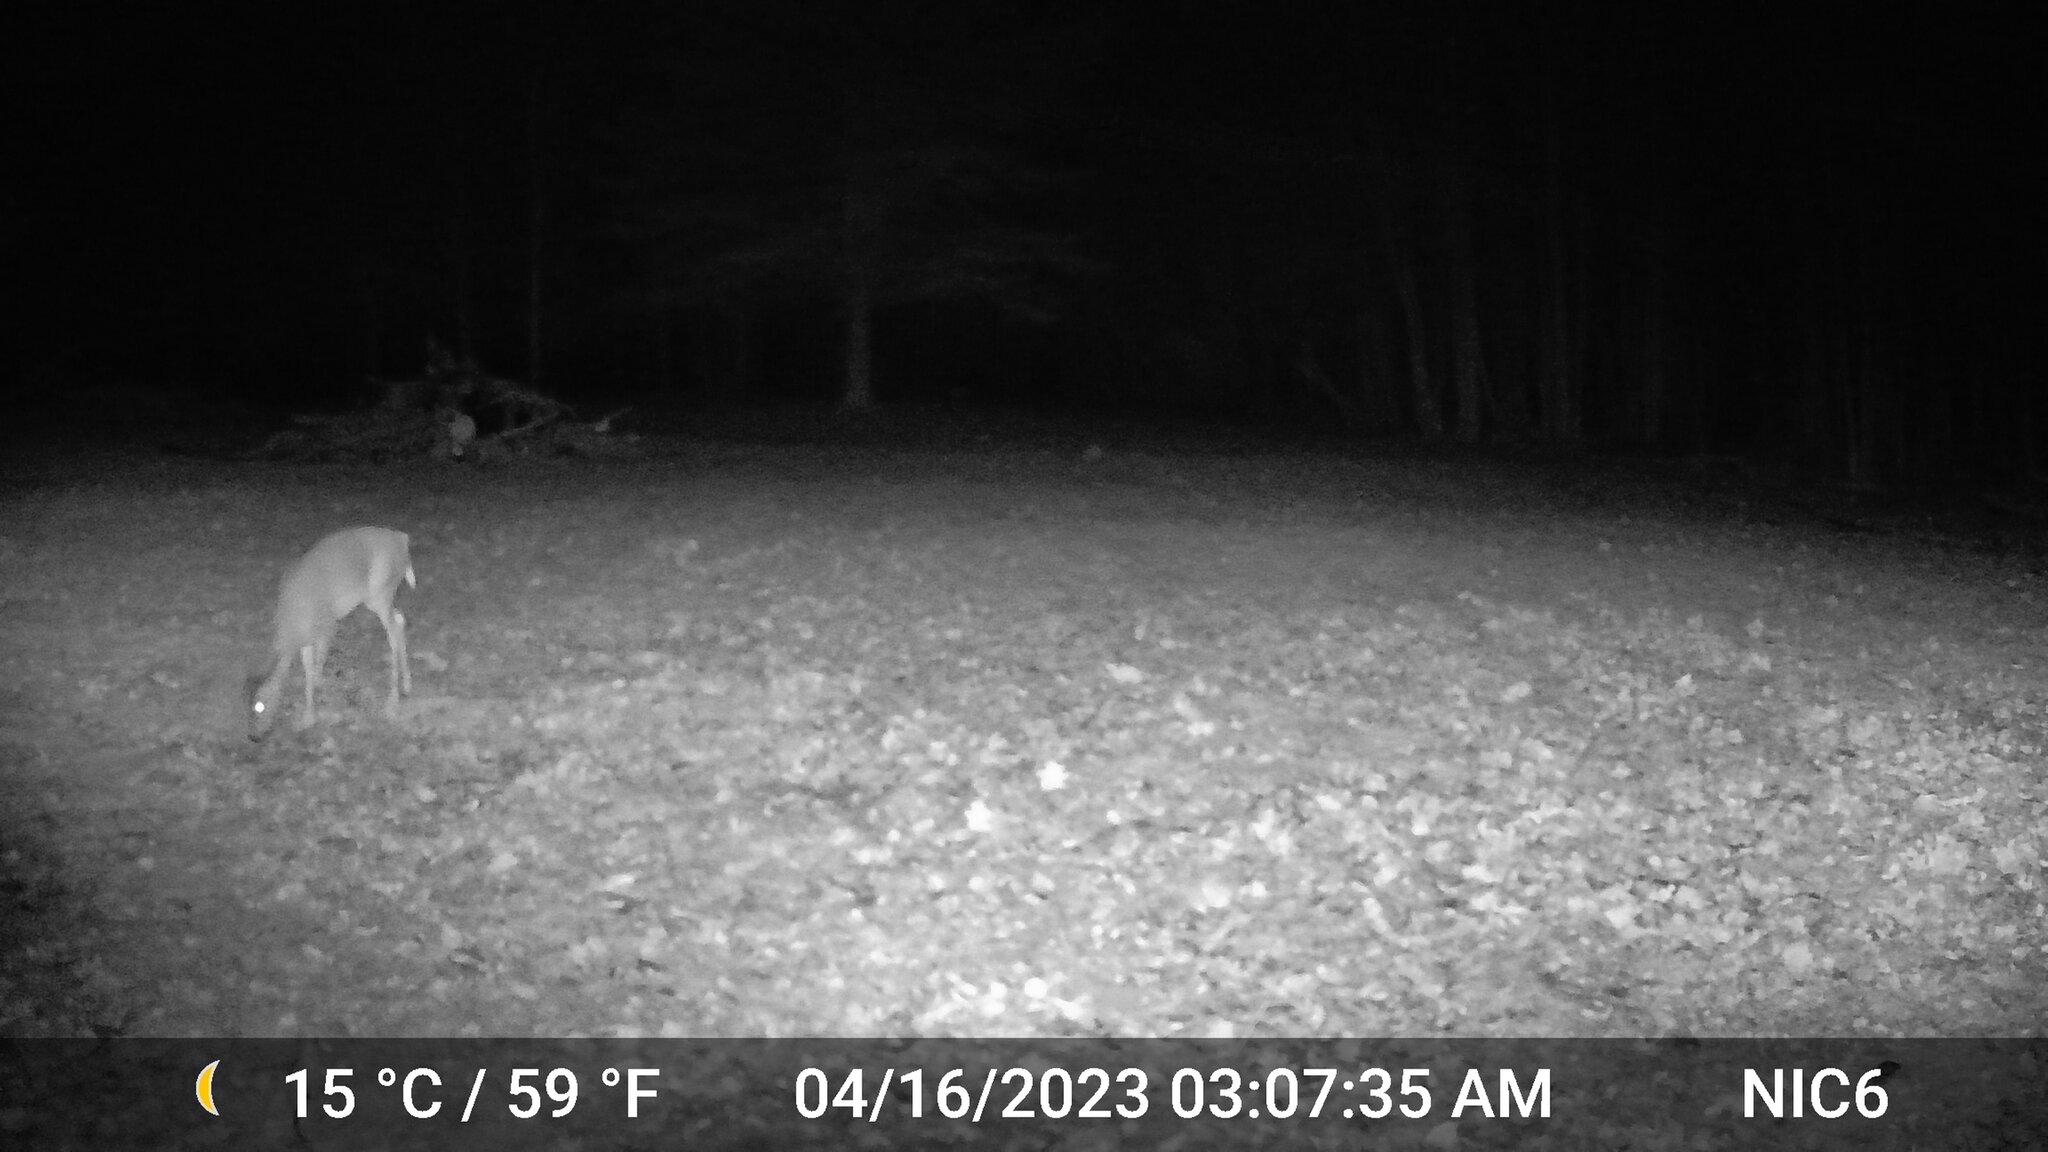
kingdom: Animalia
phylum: Chordata
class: Mammalia
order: Artiodactyla
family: Cervidae
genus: Odocoileus
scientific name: Odocoileus virginianus
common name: White-tailed deer
